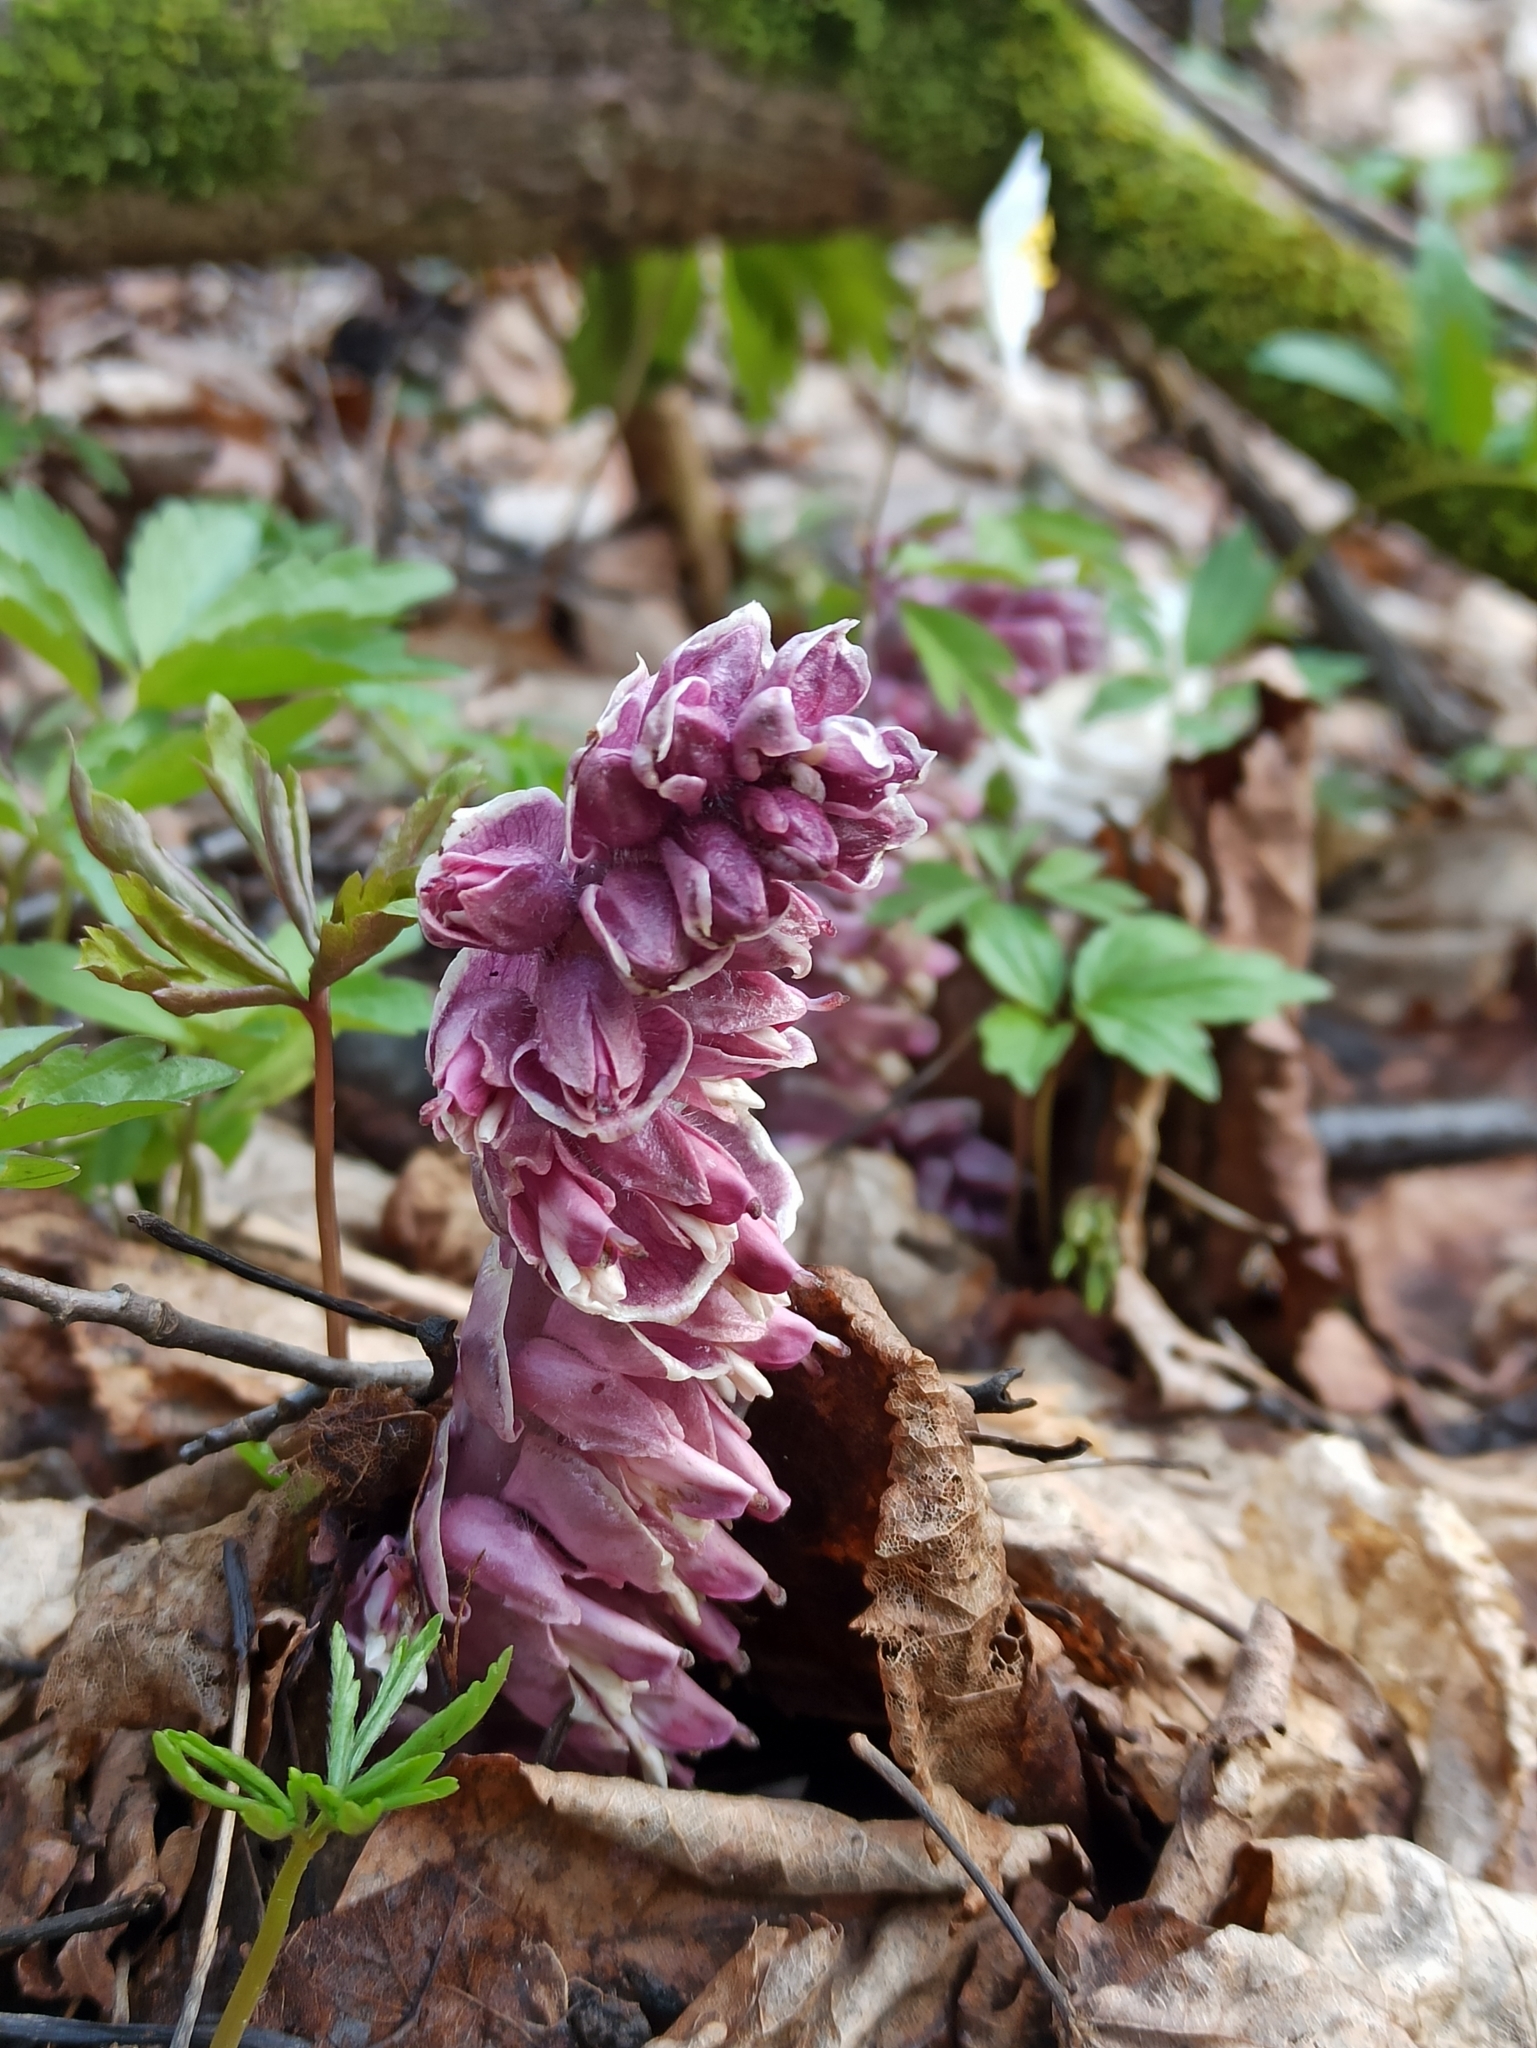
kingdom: Plantae
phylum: Tracheophyta
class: Magnoliopsida
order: Lamiales
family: Orobanchaceae
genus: Lathraea
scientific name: Lathraea squamaria
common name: Toothwort
